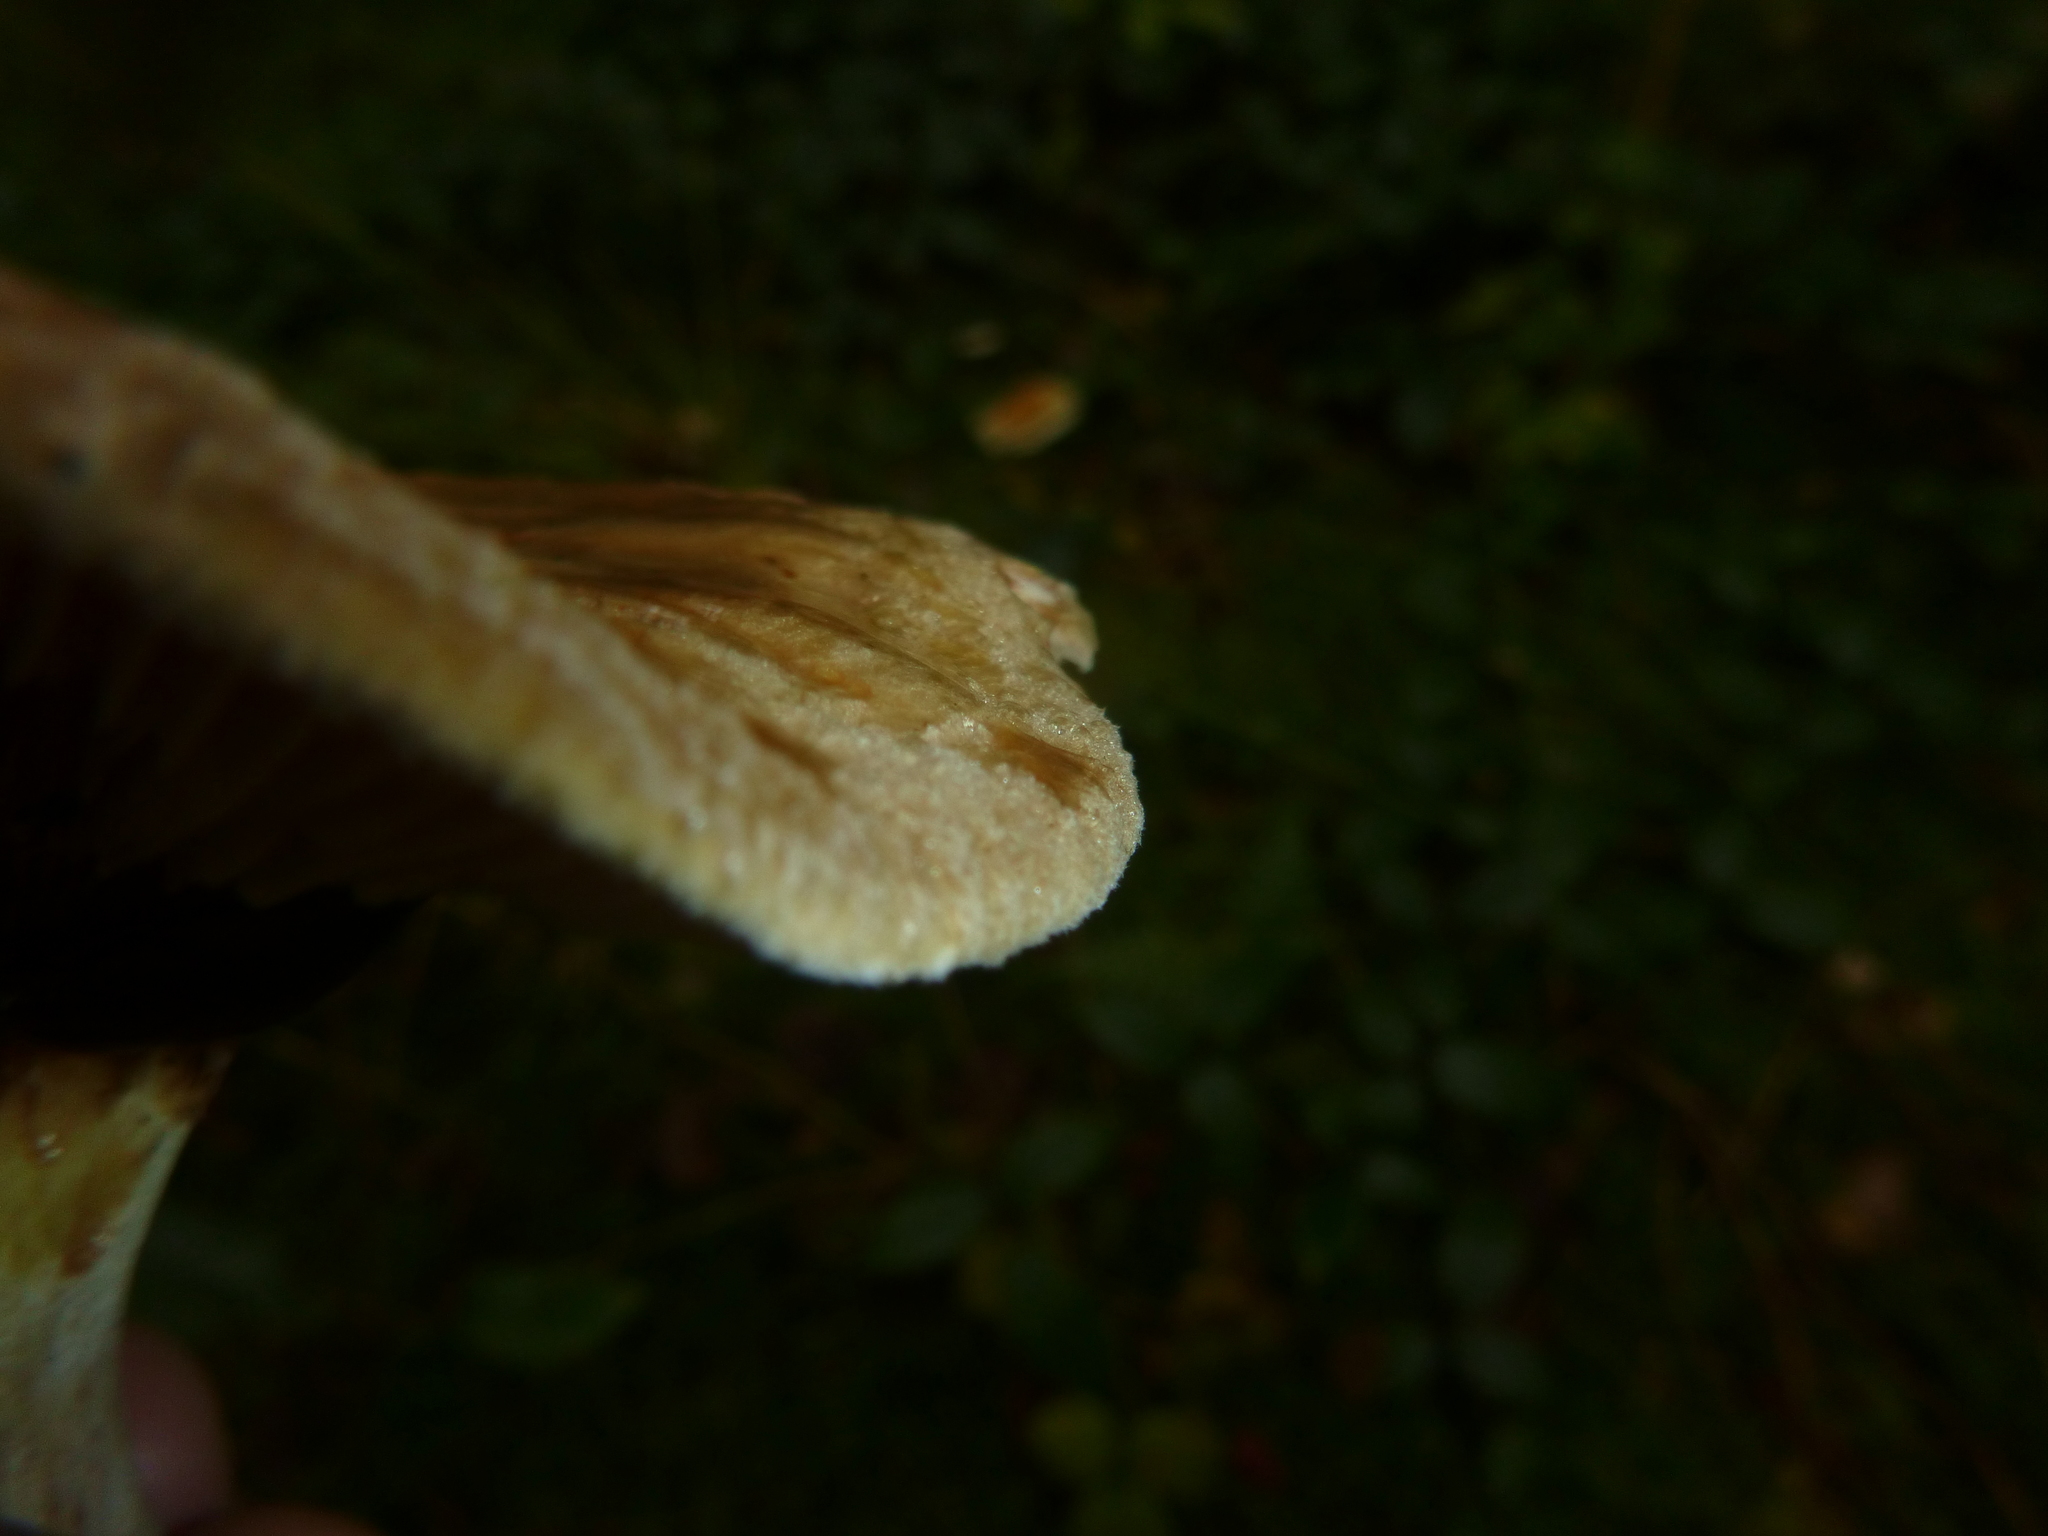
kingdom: Fungi
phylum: Basidiomycota
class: Agaricomycetes
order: Boletales
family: Paxillaceae
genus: Paxillus
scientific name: Paxillus involutus
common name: Brown roll rim
